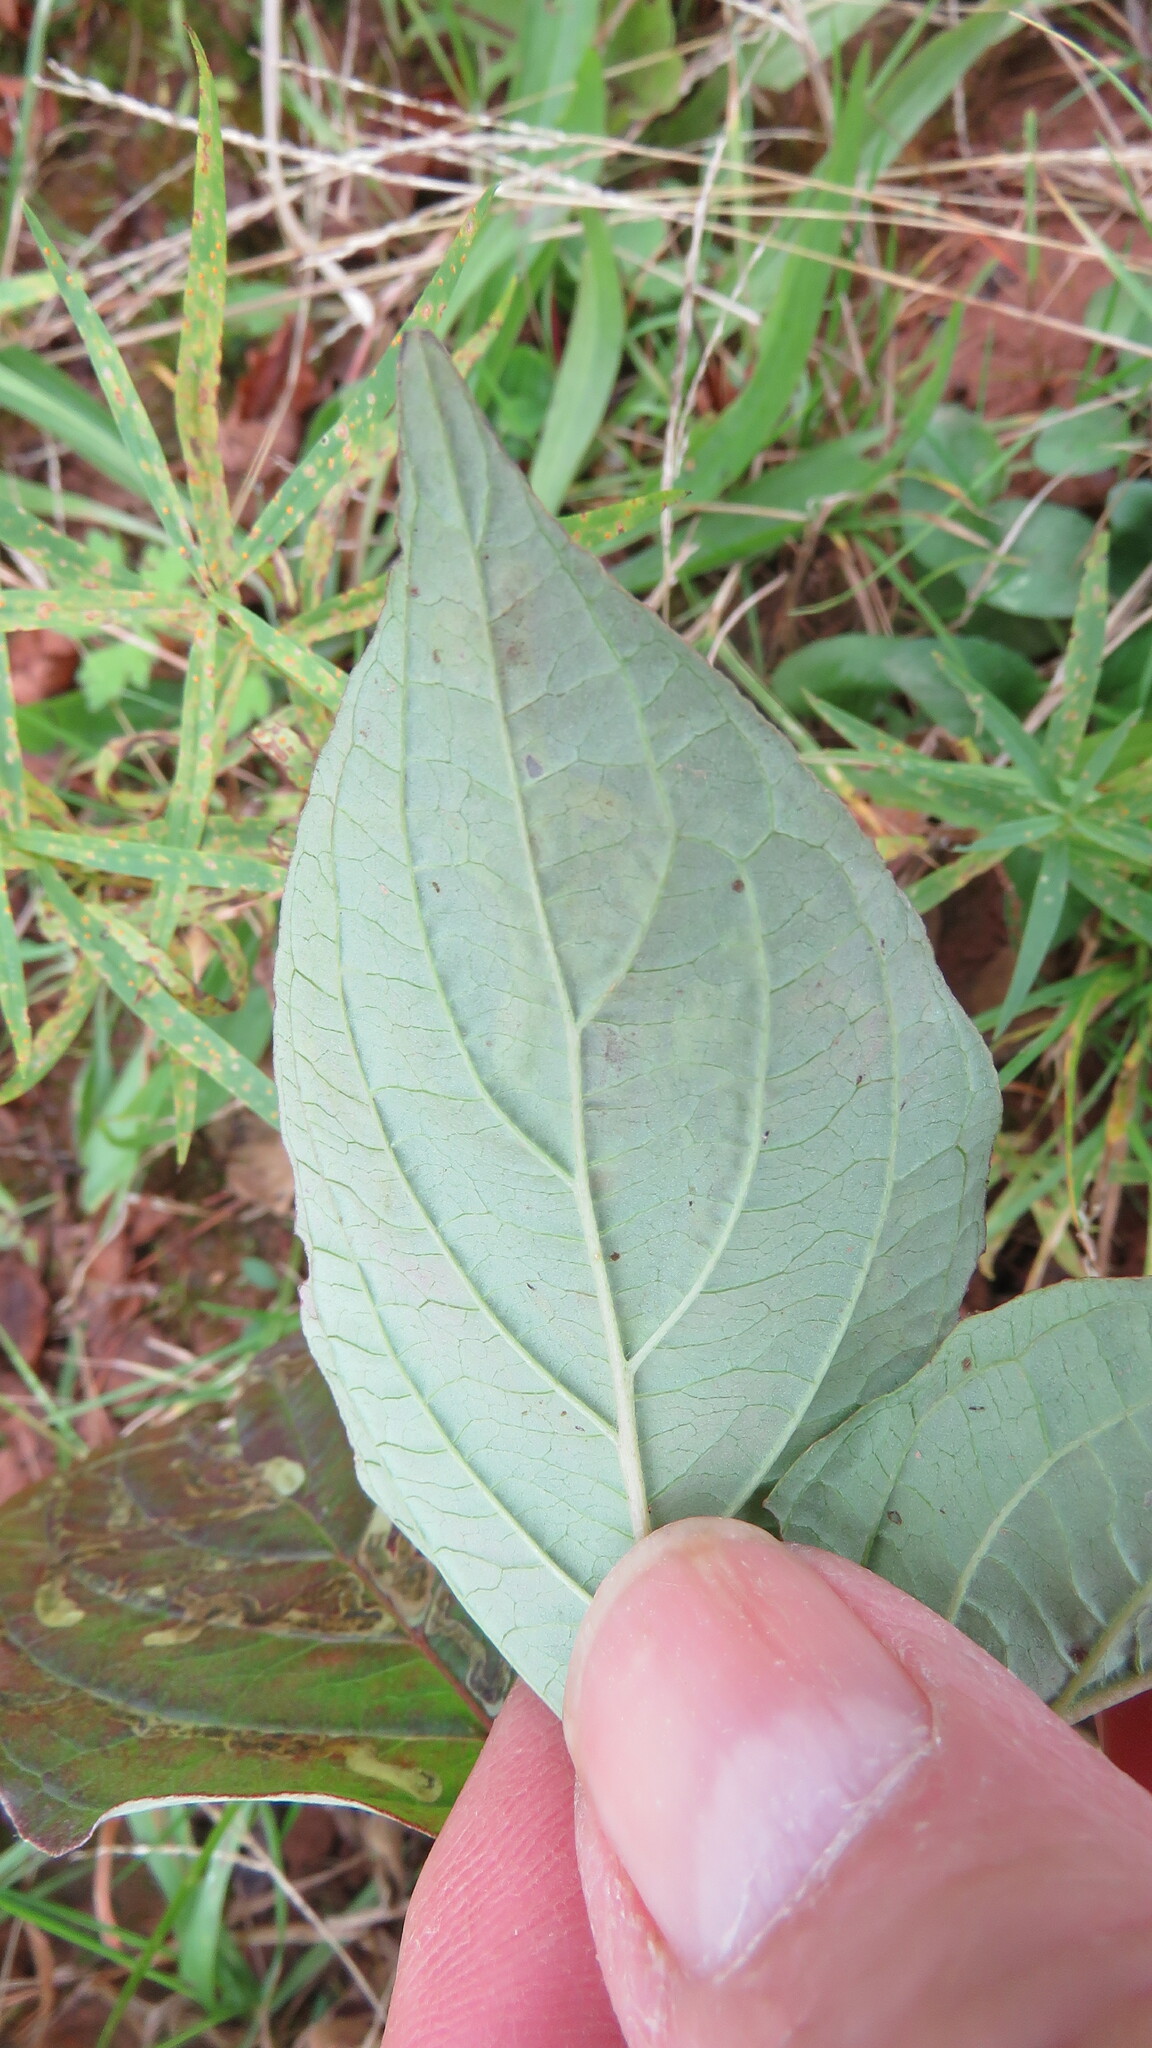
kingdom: Animalia
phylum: Arthropoda
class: Insecta
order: Diptera
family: Agromyzidae
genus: Phytomyza
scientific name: Phytomyza agromyzina
